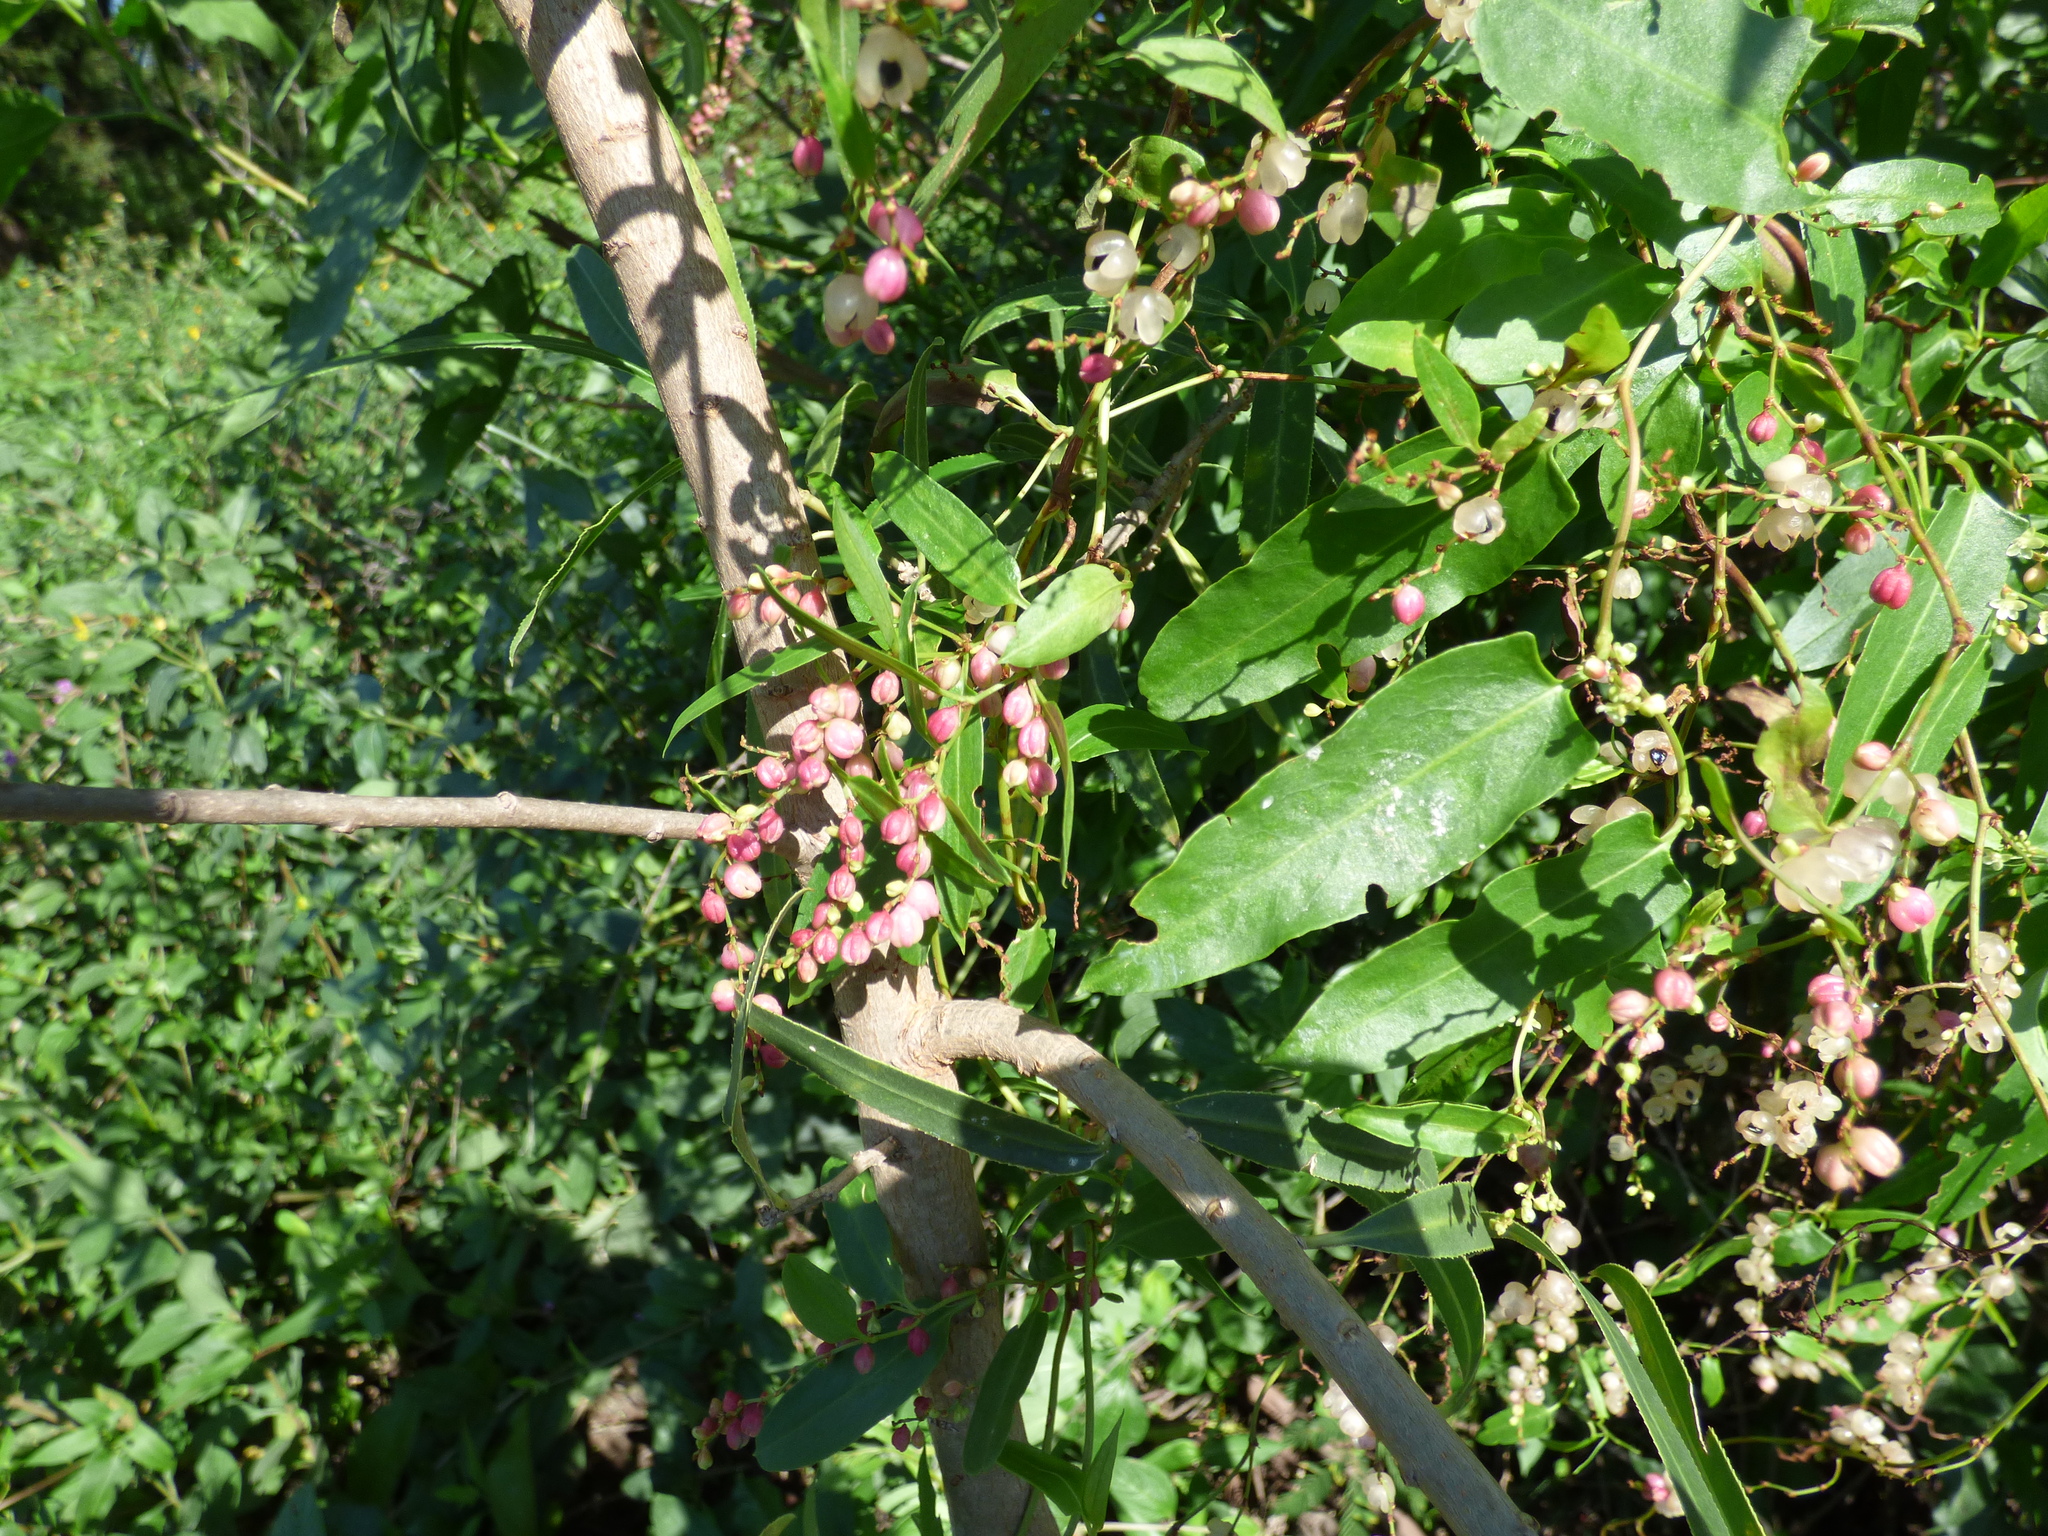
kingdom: Plantae
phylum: Tracheophyta
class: Magnoliopsida
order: Caryophyllales
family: Polygonaceae
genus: Muehlenbeckia
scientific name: Muehlenbeckia sagittifolia
